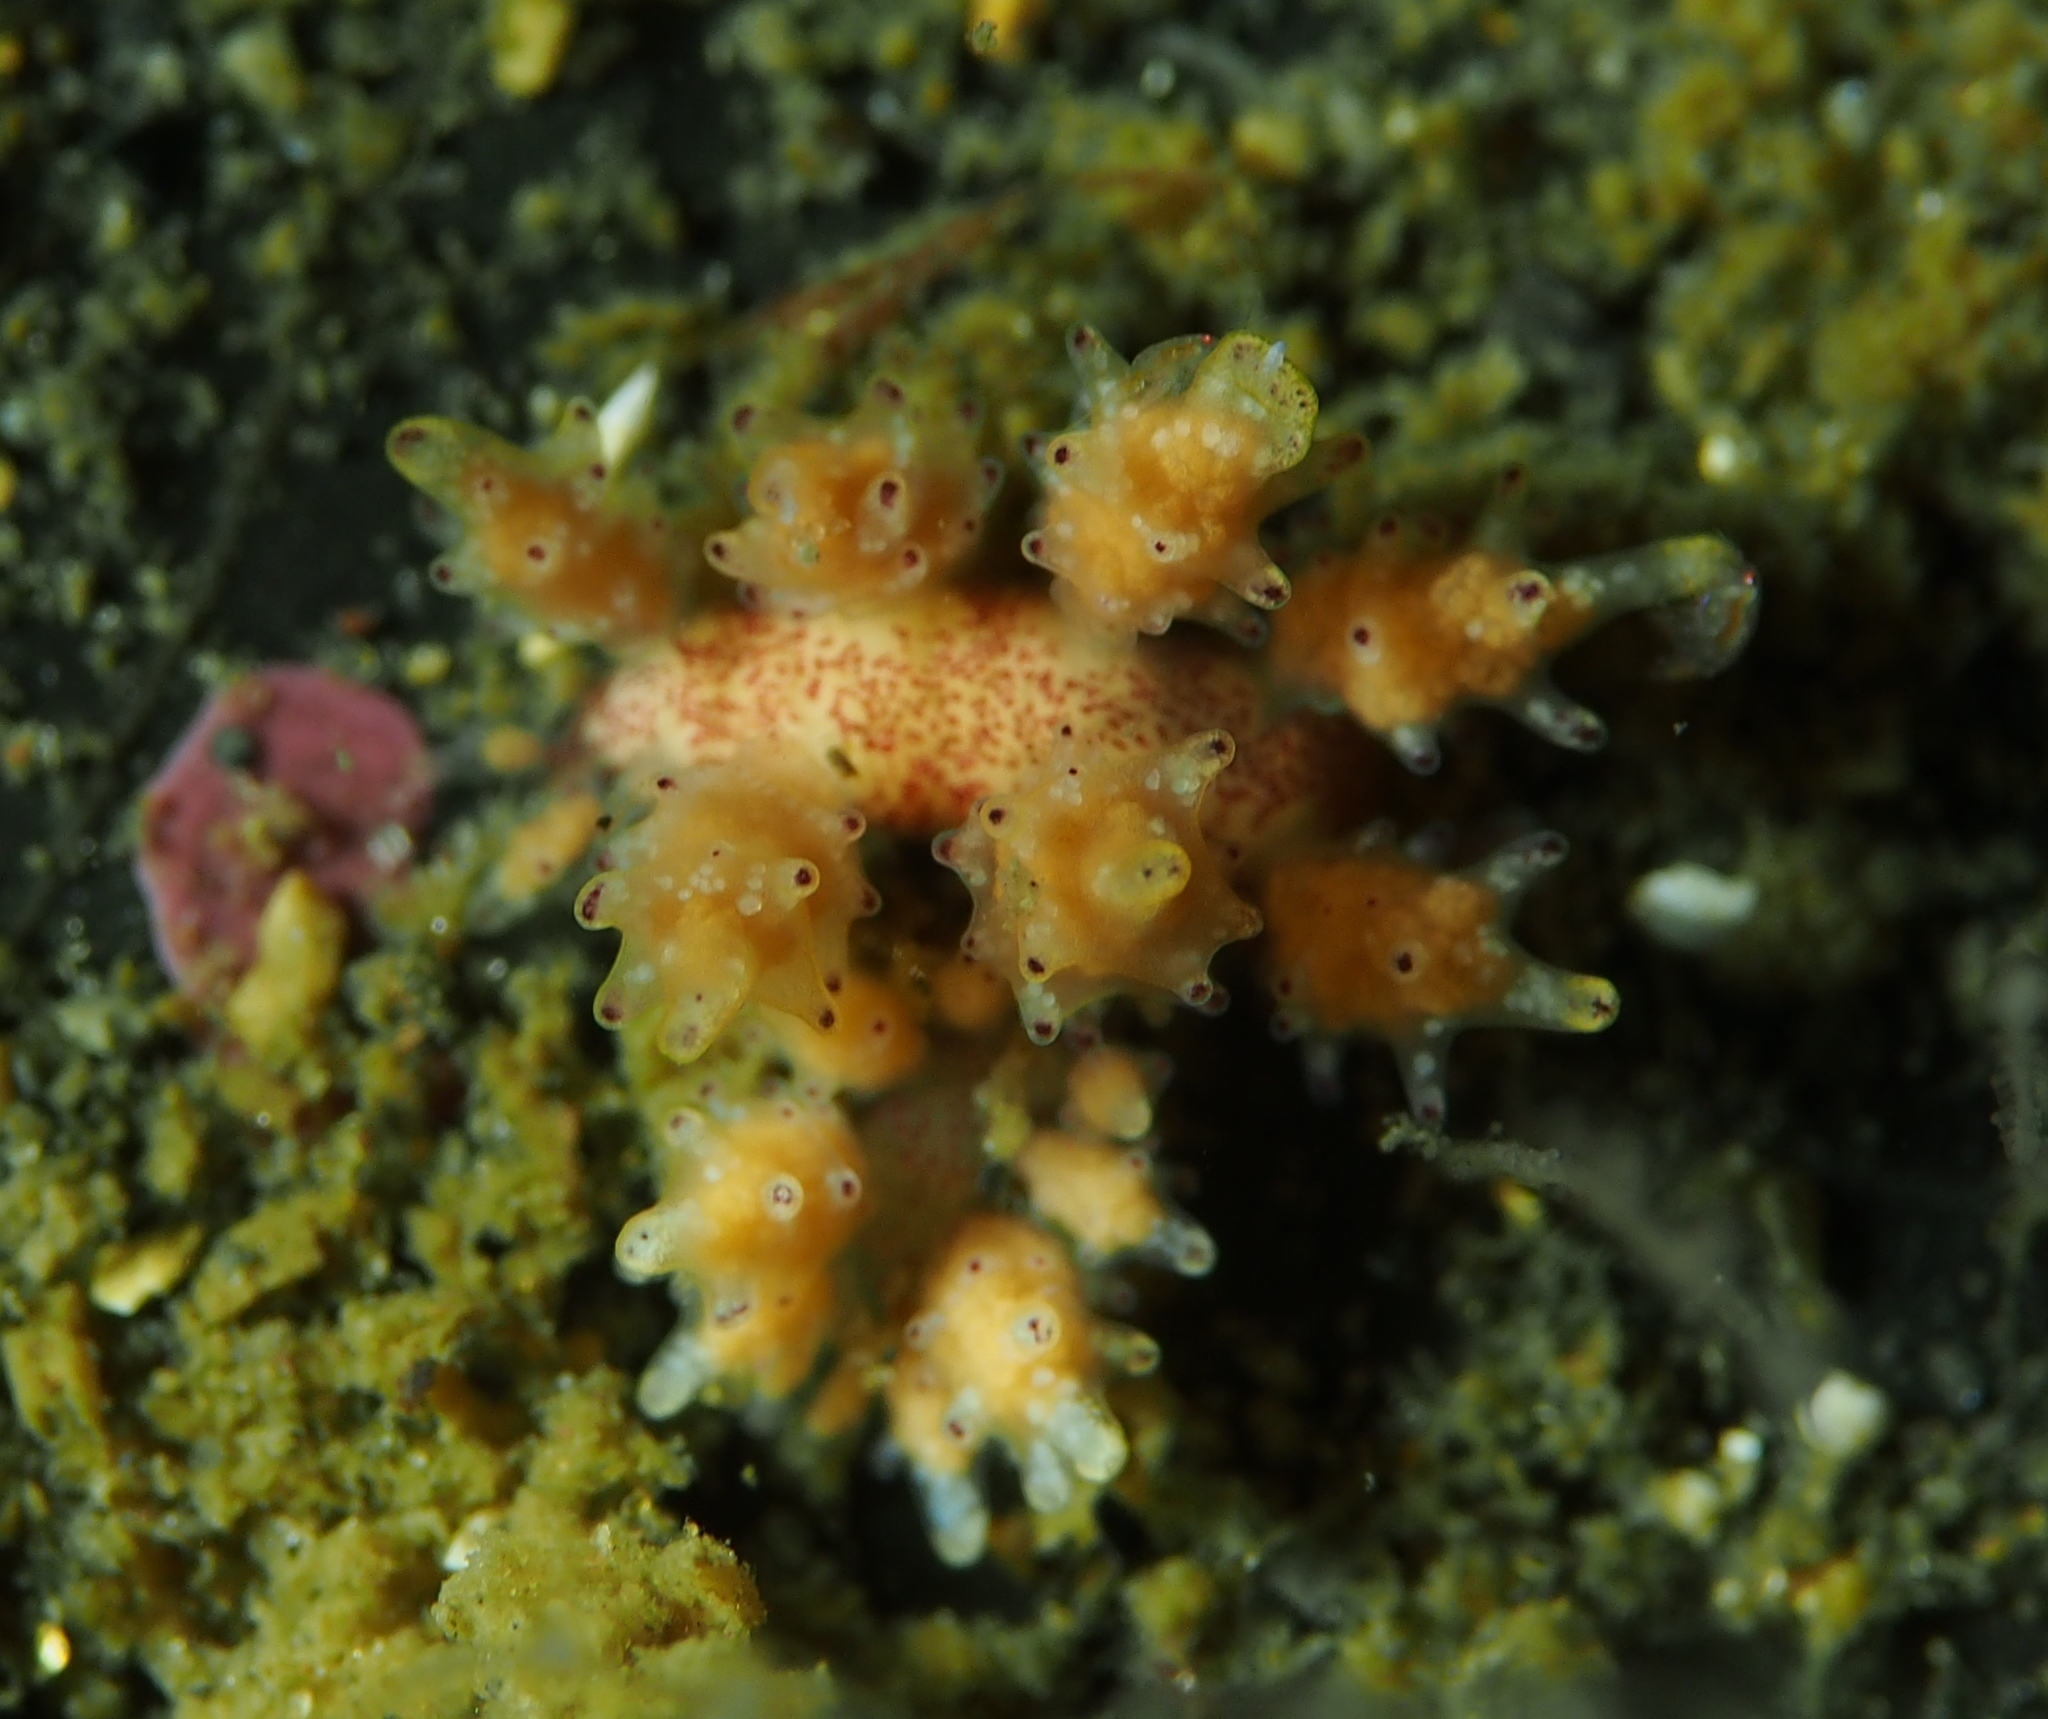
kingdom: Animalia
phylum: Mollusca
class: Gastropoda
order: Nudibranchia
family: Dotidae
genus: Doto
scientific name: Doto dunnei
